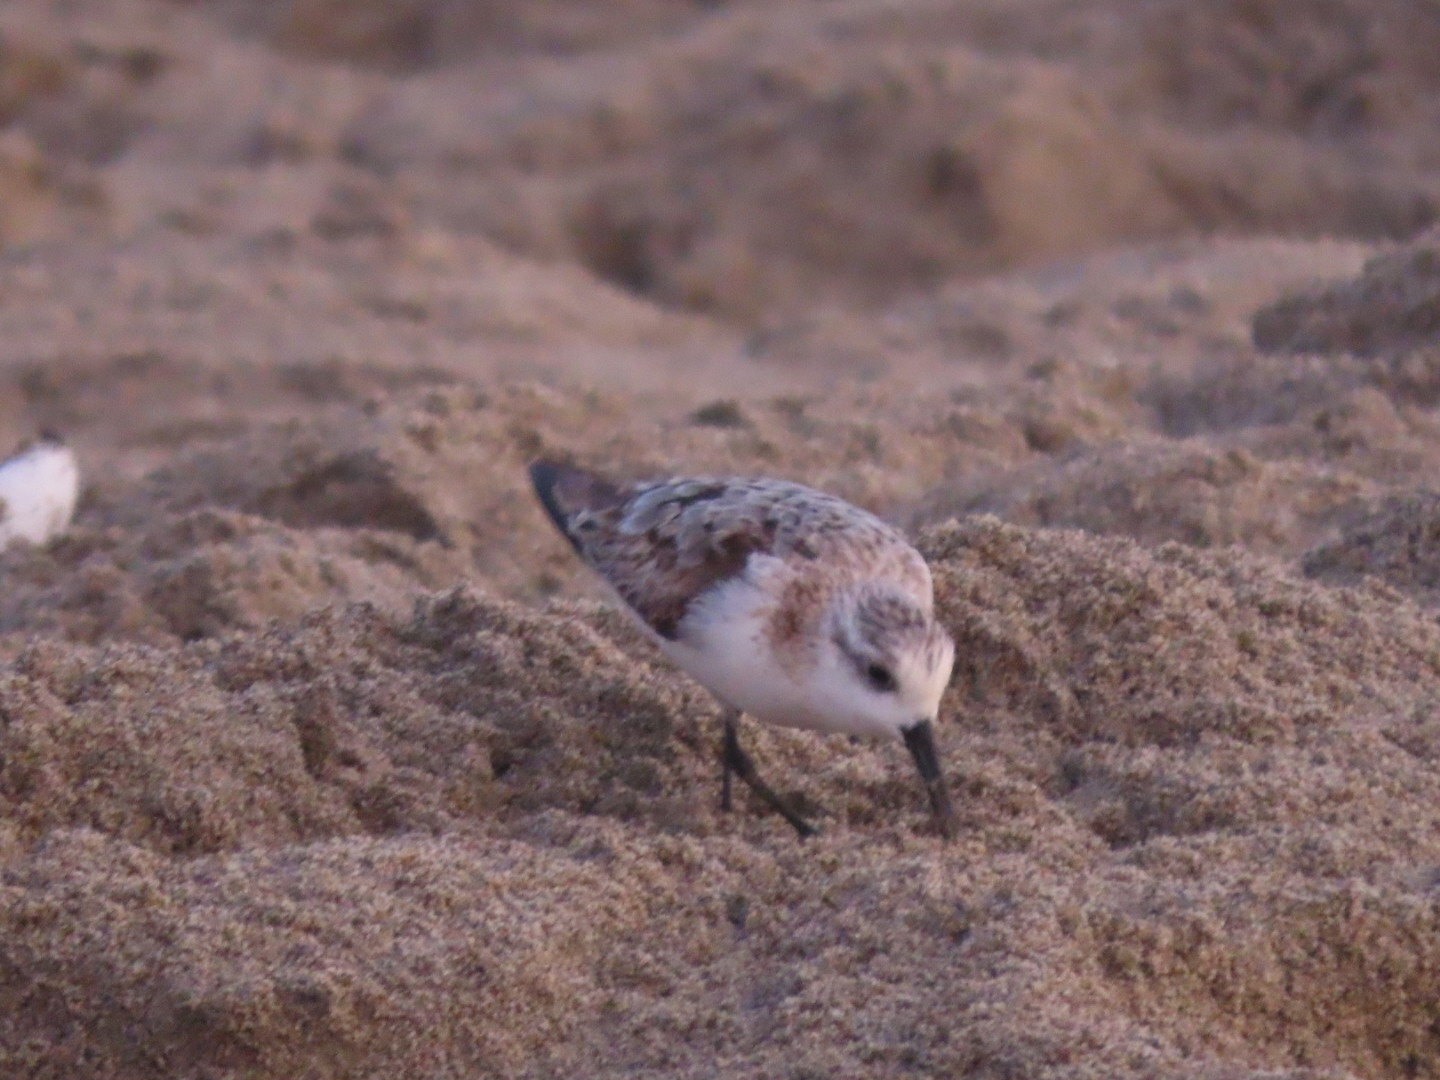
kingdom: Animalia
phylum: Chordata
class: Aves
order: Charadriiformes
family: Scolopacidae
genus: Calidris
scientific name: Calidris alba
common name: Sanderling
